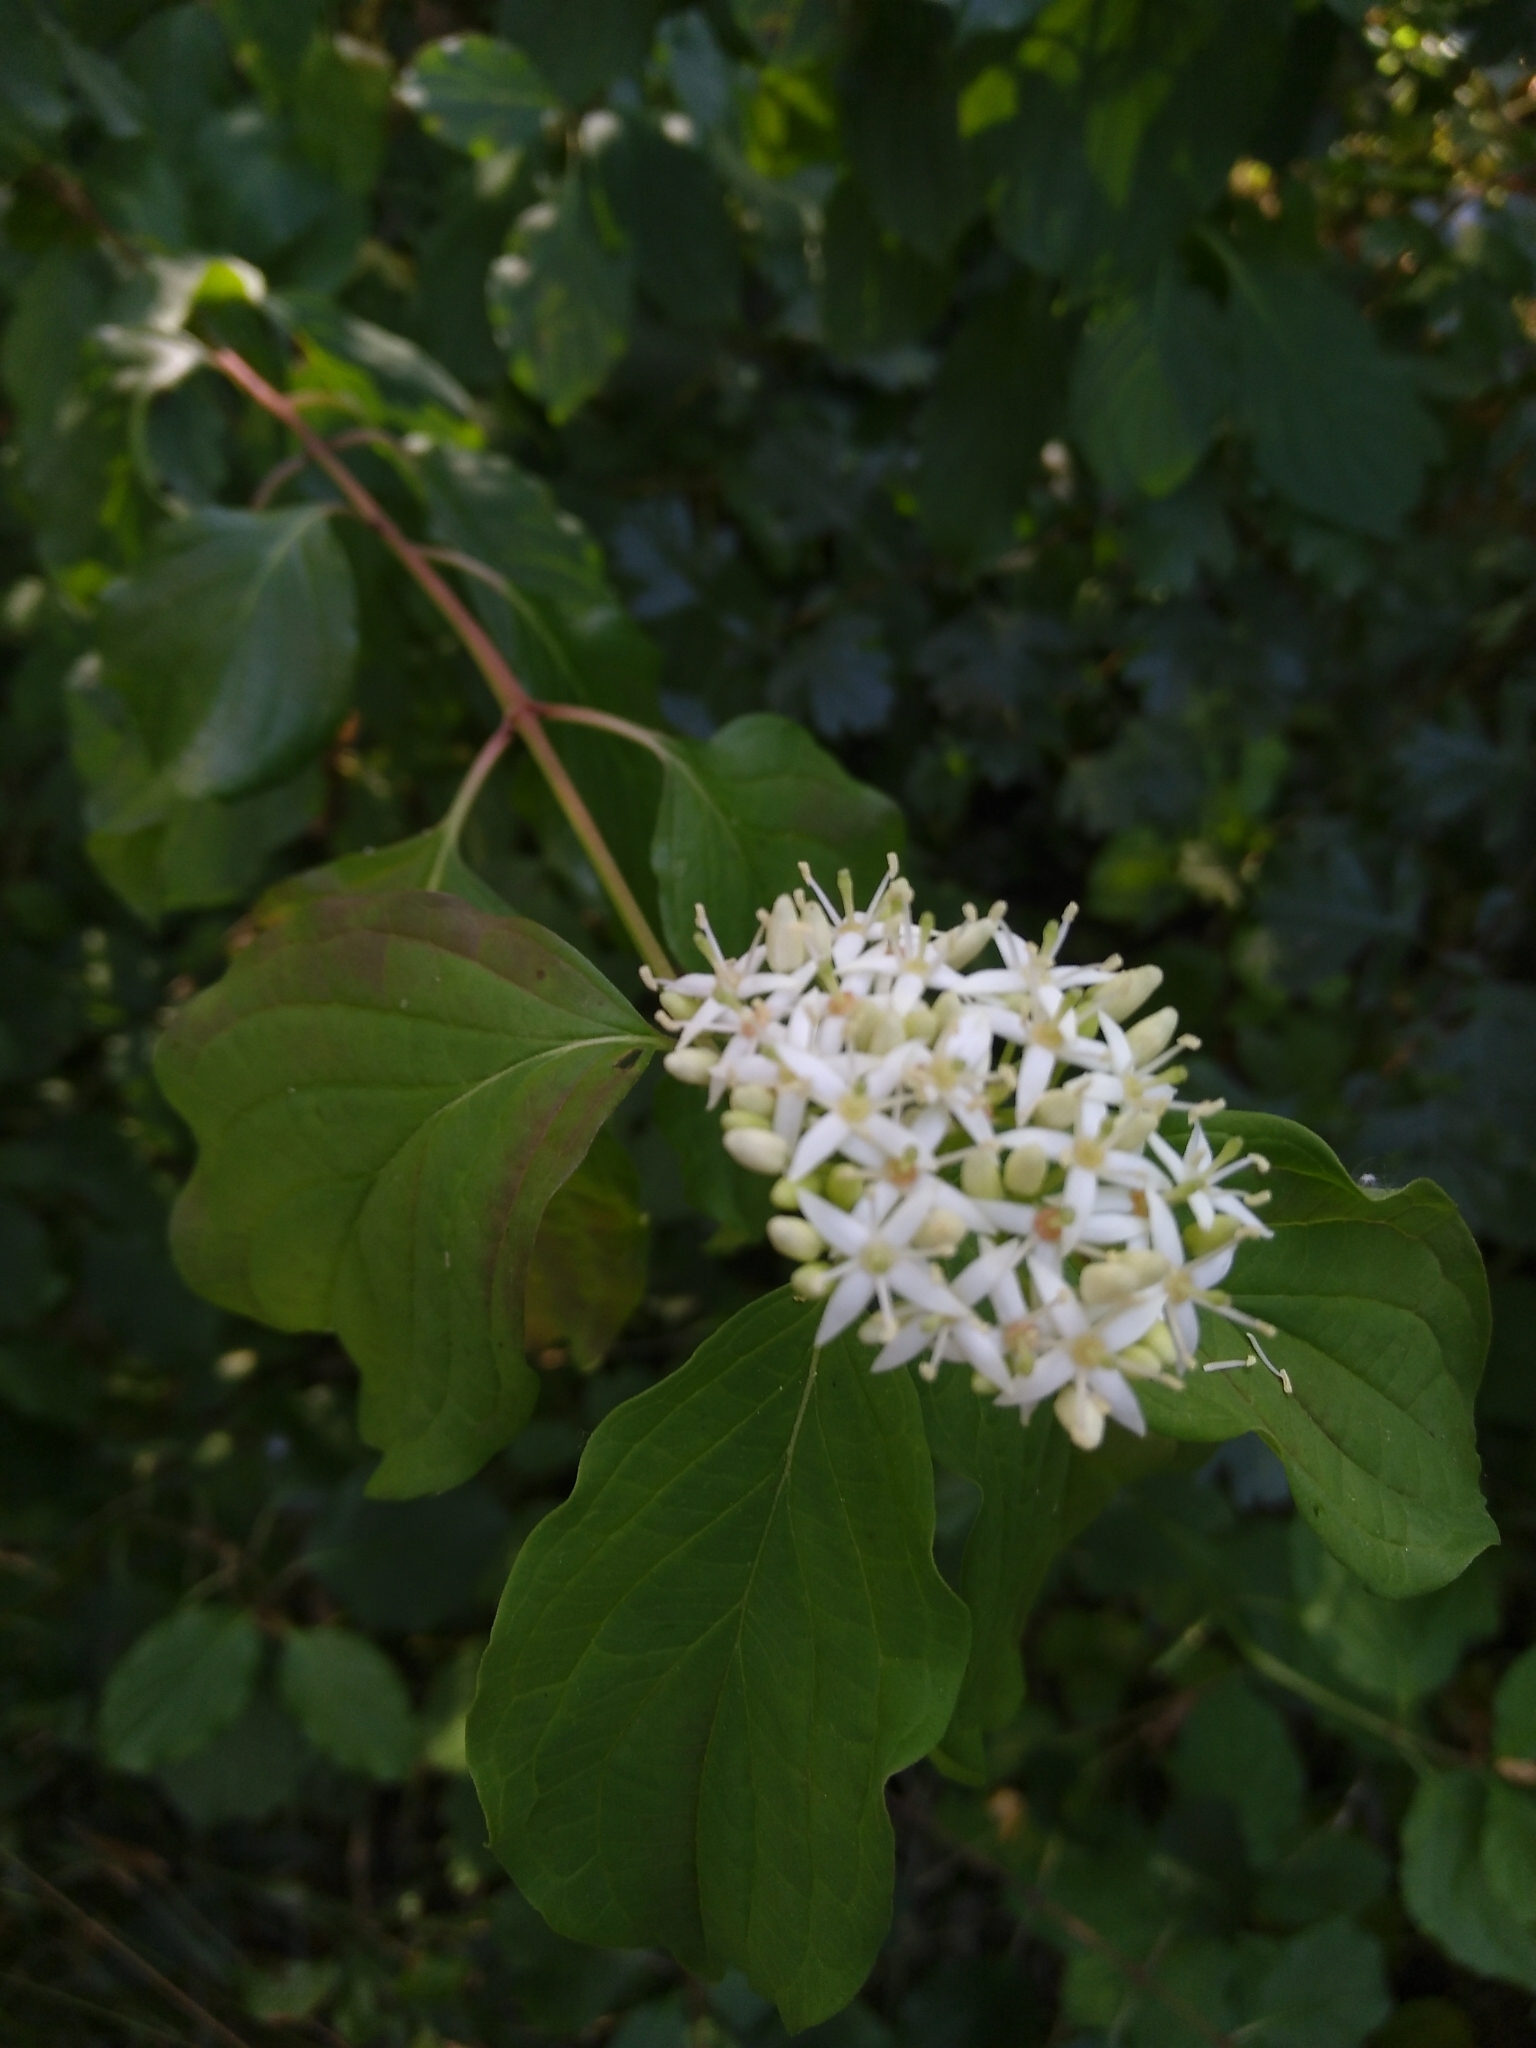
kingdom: Plantae
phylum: Tracheophyta
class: Magnoliopsida
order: Cornales
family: Cornaceae
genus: Cornus
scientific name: Cornus sanguinea
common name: Dogwood
